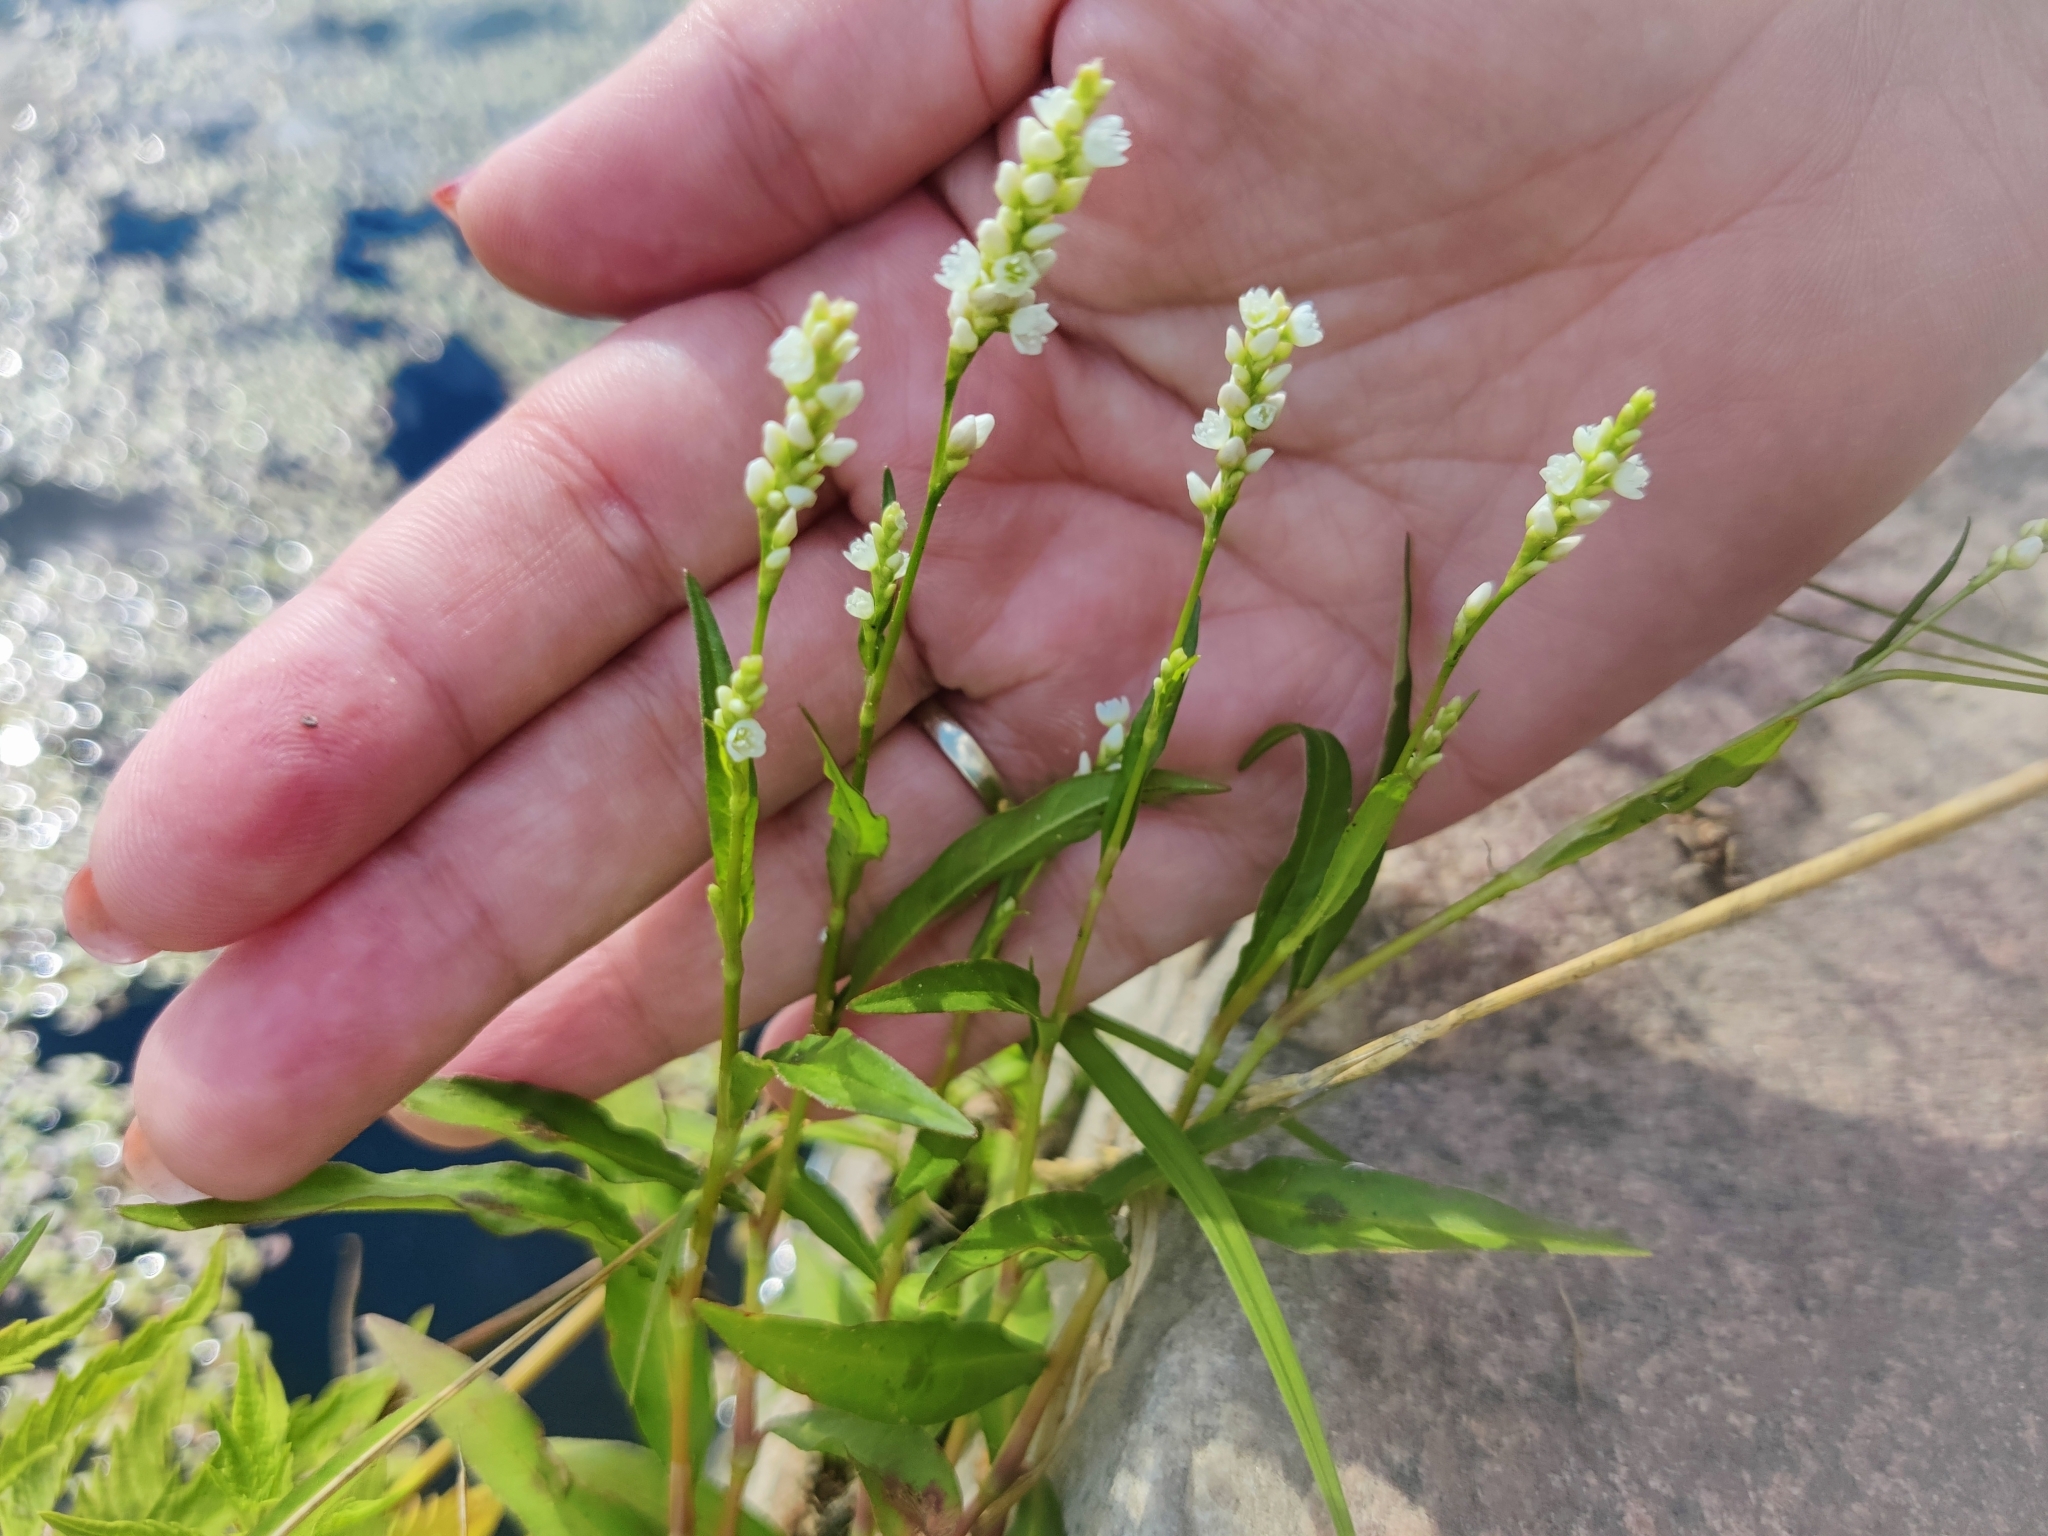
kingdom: Plantae
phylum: Tracheophyta
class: Magnoliopsida
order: Caryophyllales
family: Polygonaceae
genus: Persicaria
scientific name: Persicaria maculosa
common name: Redshank
